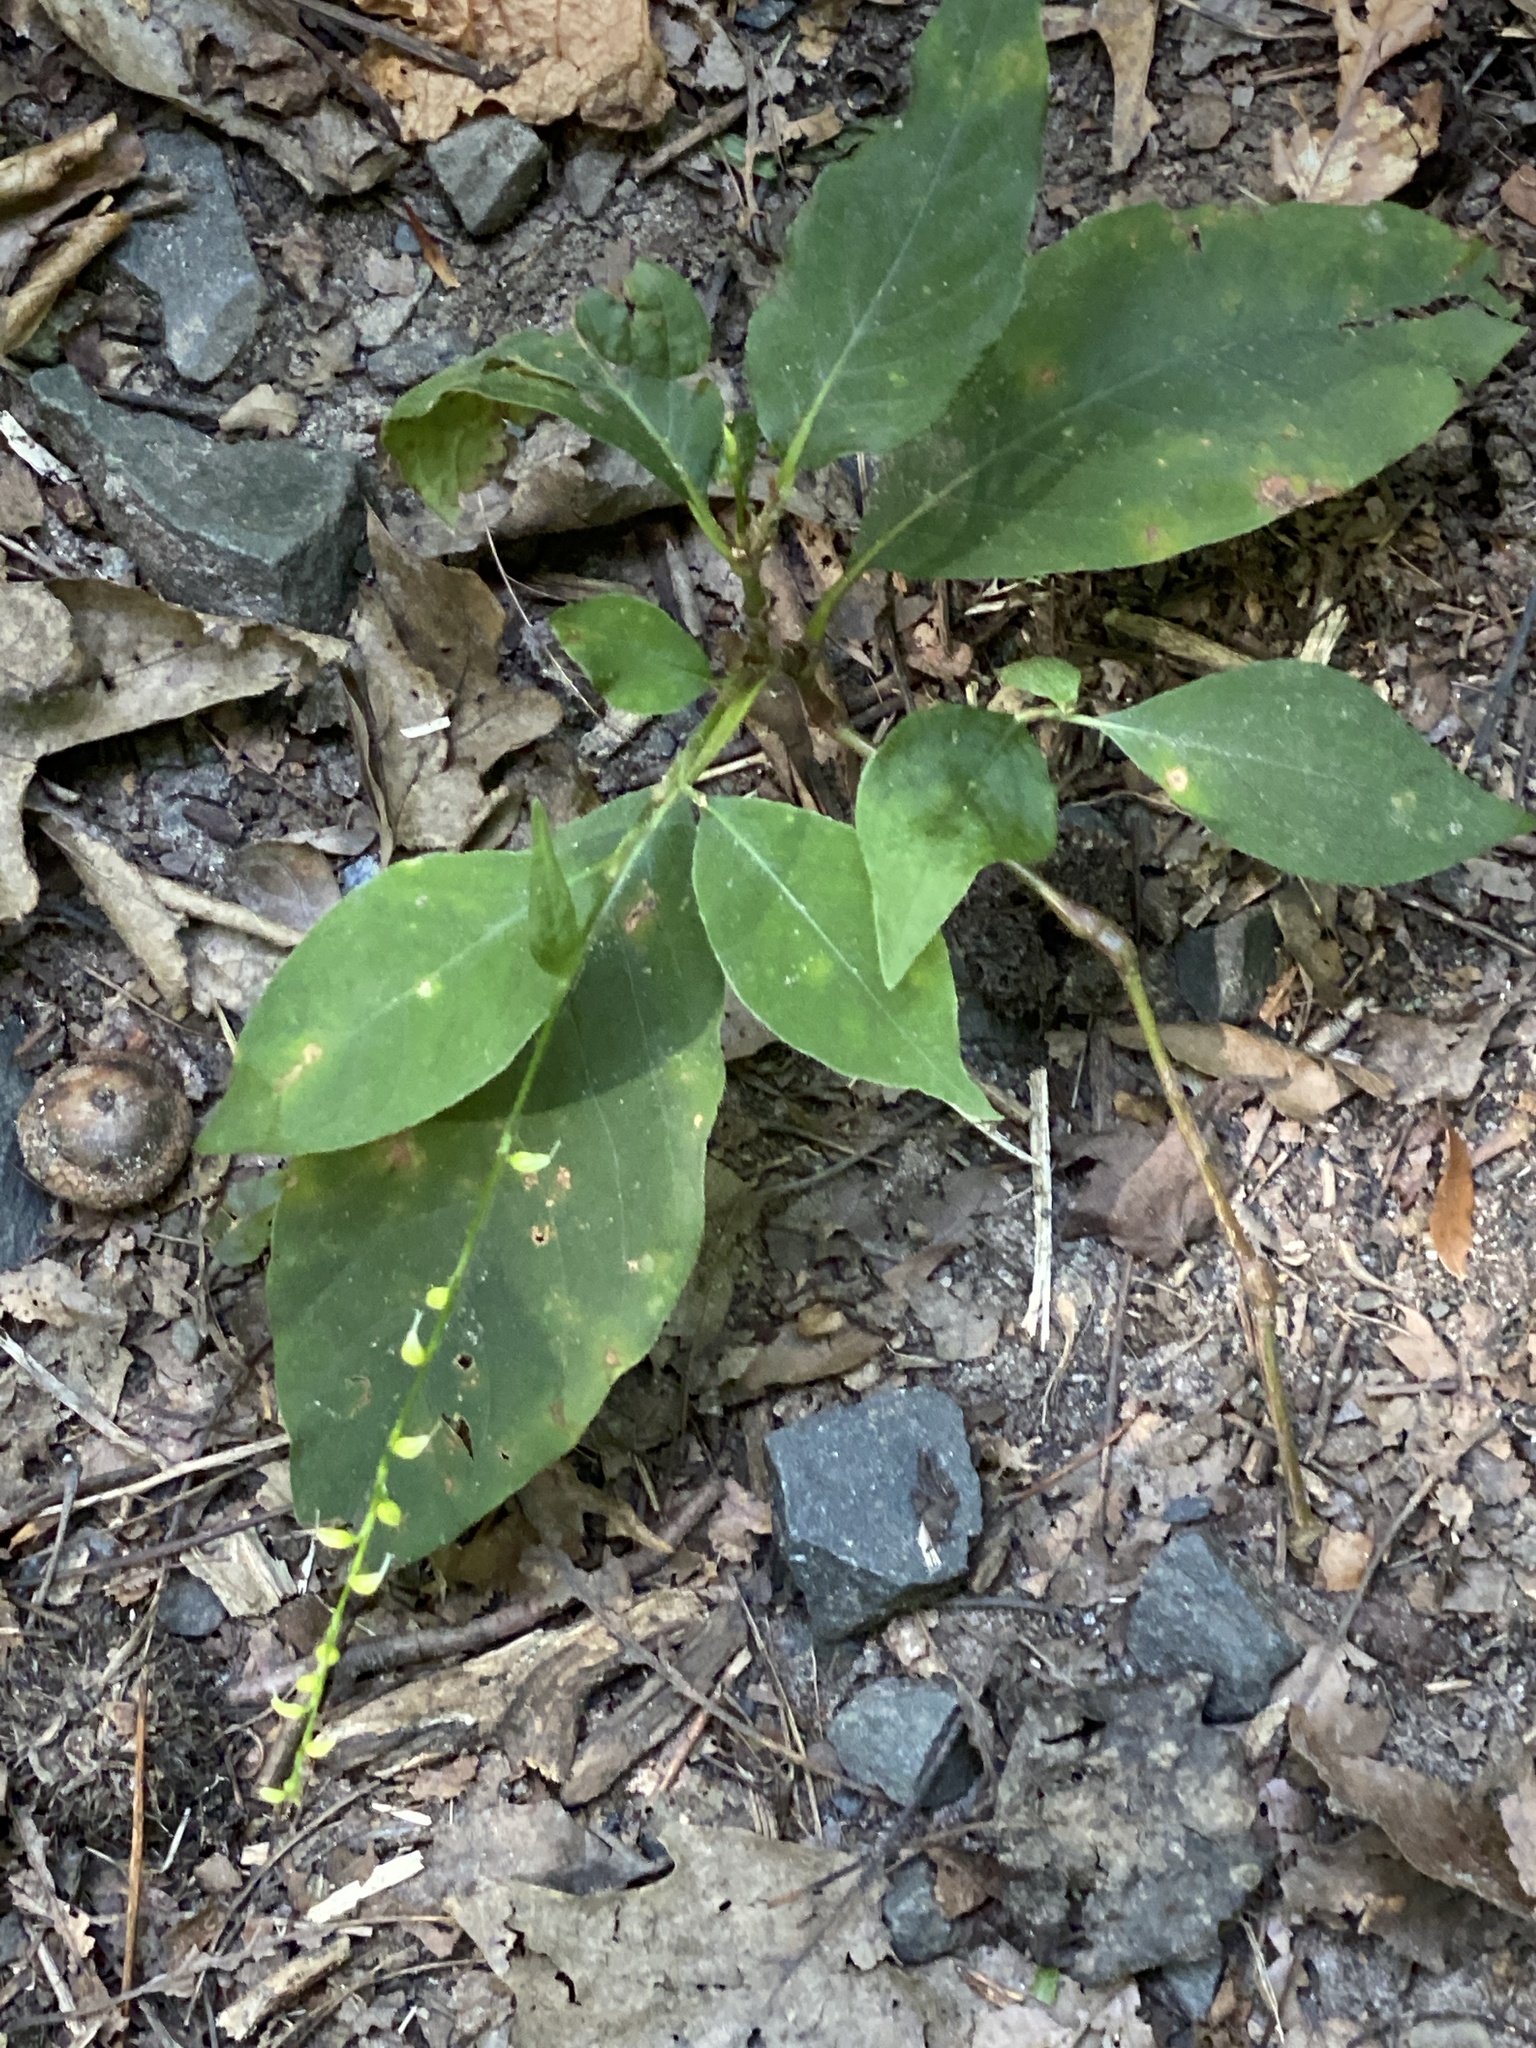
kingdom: Plantae
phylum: Tracheophyta
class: Magnoliopsida
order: Caryophyllales
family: Polygonaceae
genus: Persicaria
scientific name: Persicaria virginiana
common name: Jumpseed
